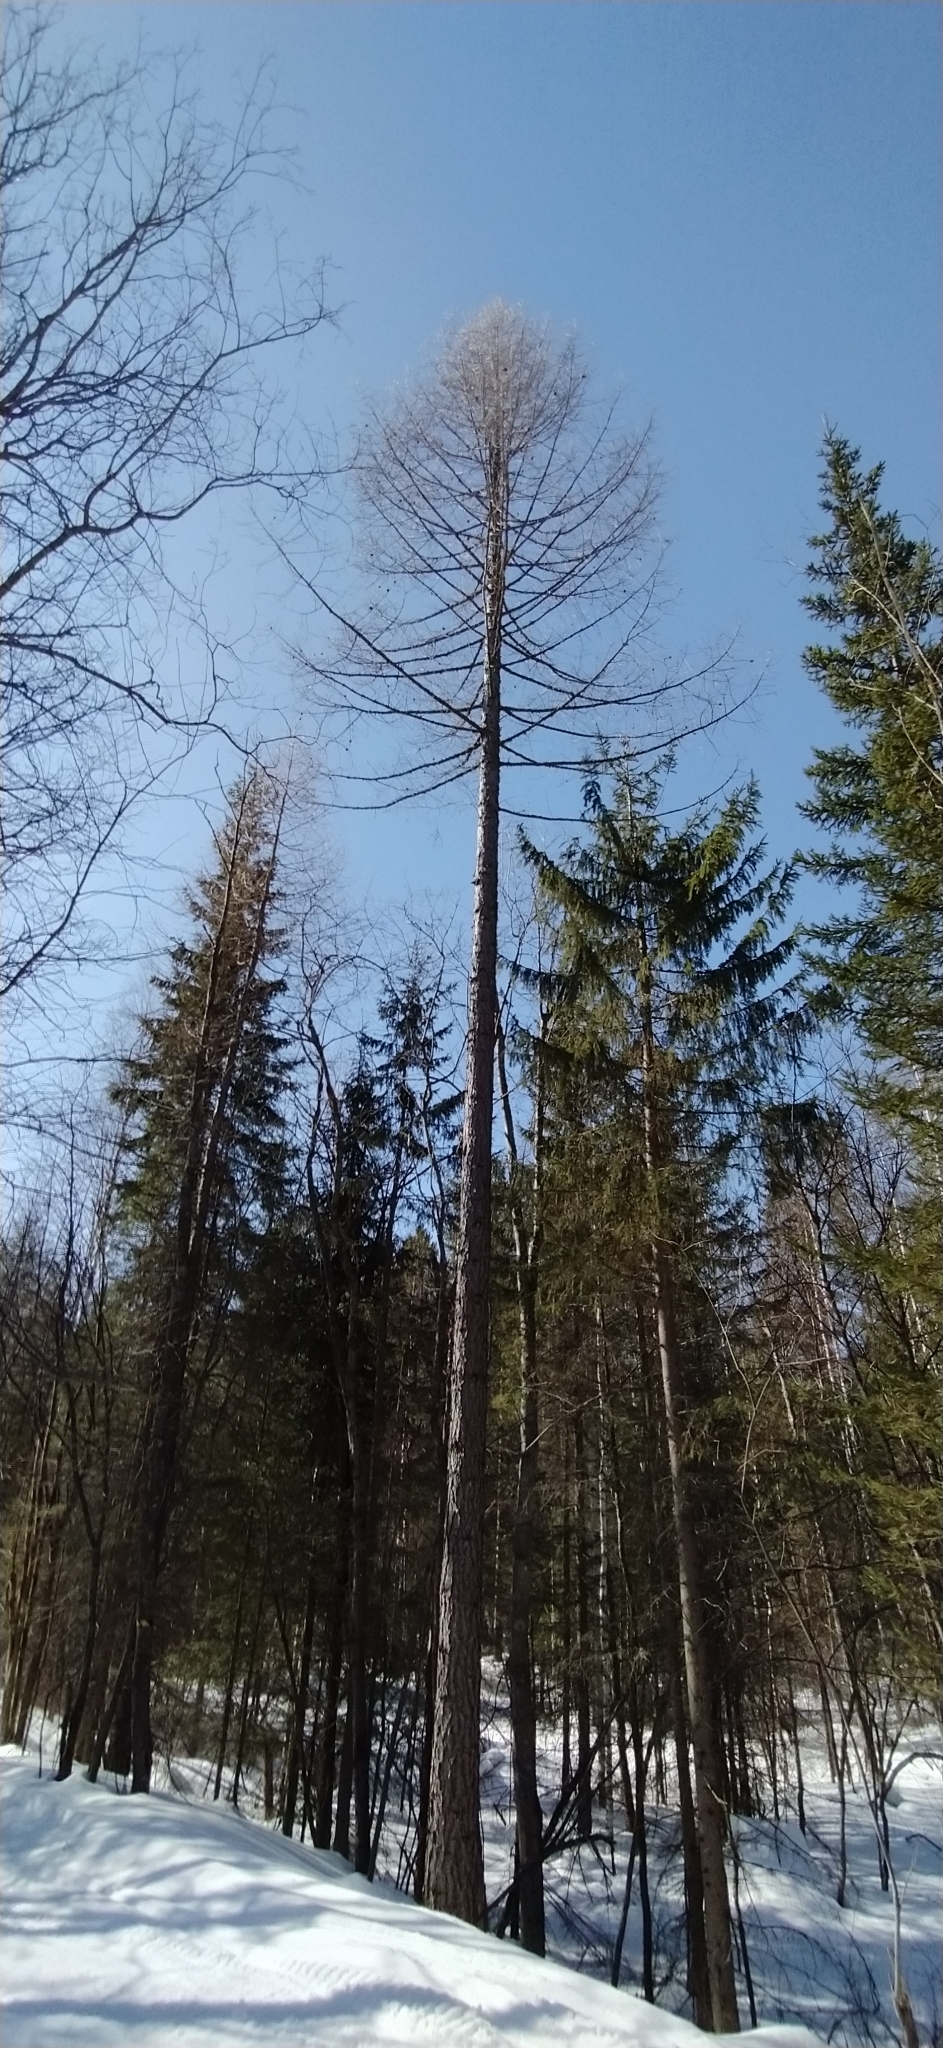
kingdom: Plantae
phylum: Tracheophyta
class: Pinopsida
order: Pinales
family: Pinaceae
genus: Larix
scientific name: Larix sibirica
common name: Siberian larch
